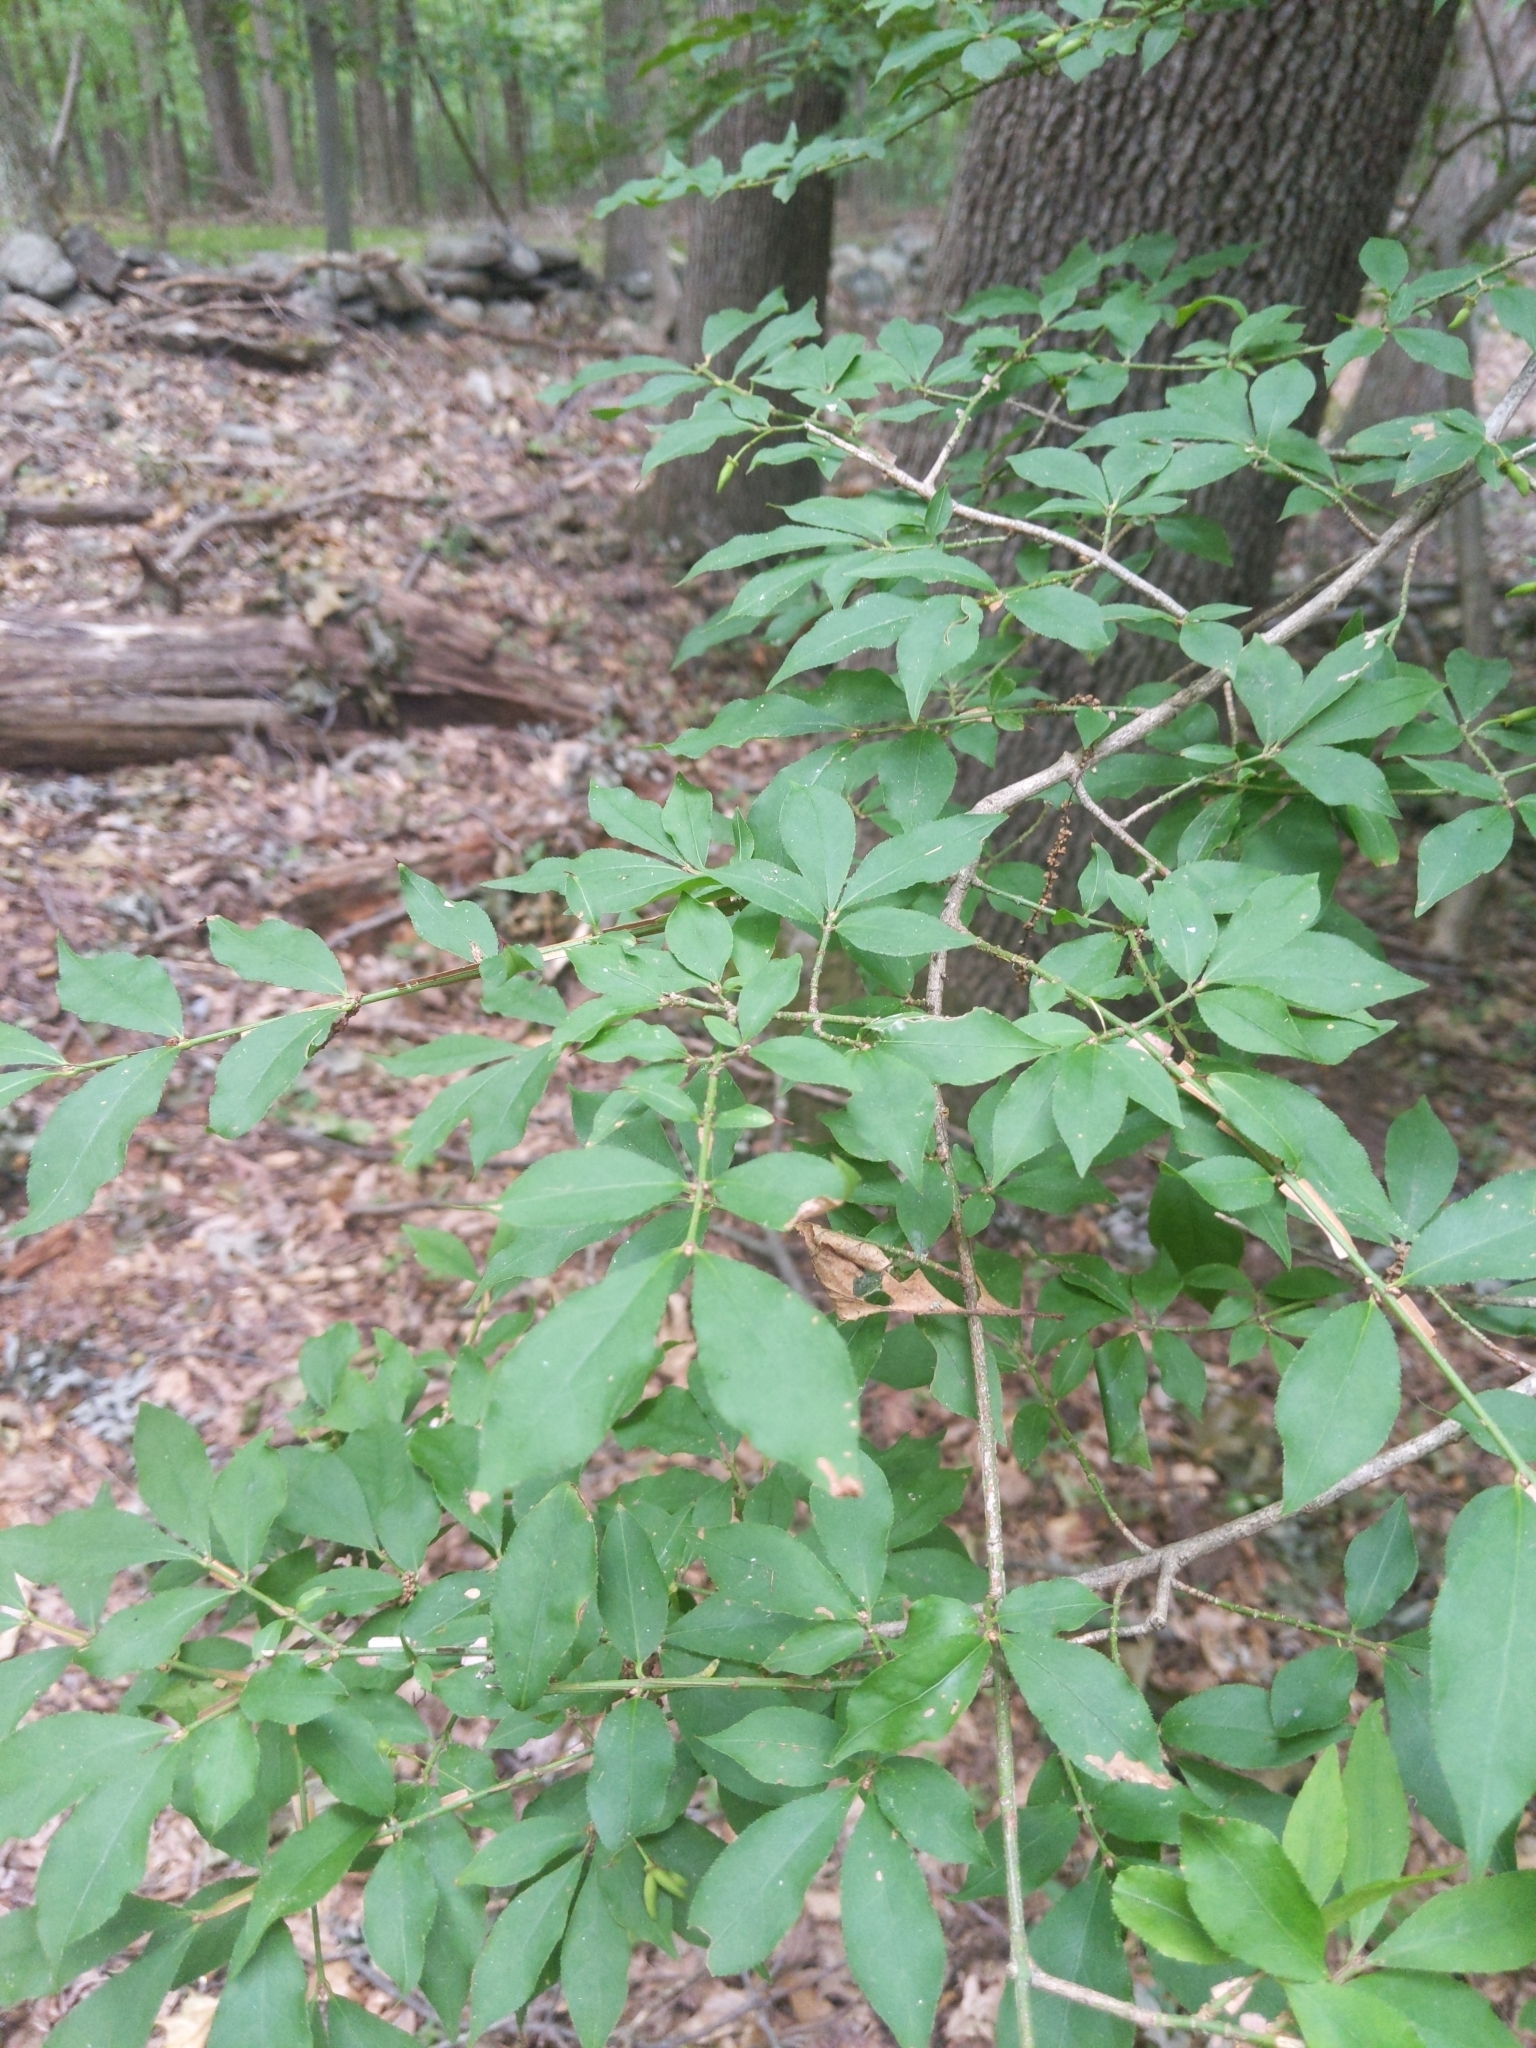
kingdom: Plantae
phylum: Tracheophyta
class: Magnoliopsida
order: Celastrales
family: Celastraceae
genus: Euonymus
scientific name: Euonymus alatus
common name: Winged euonymus
